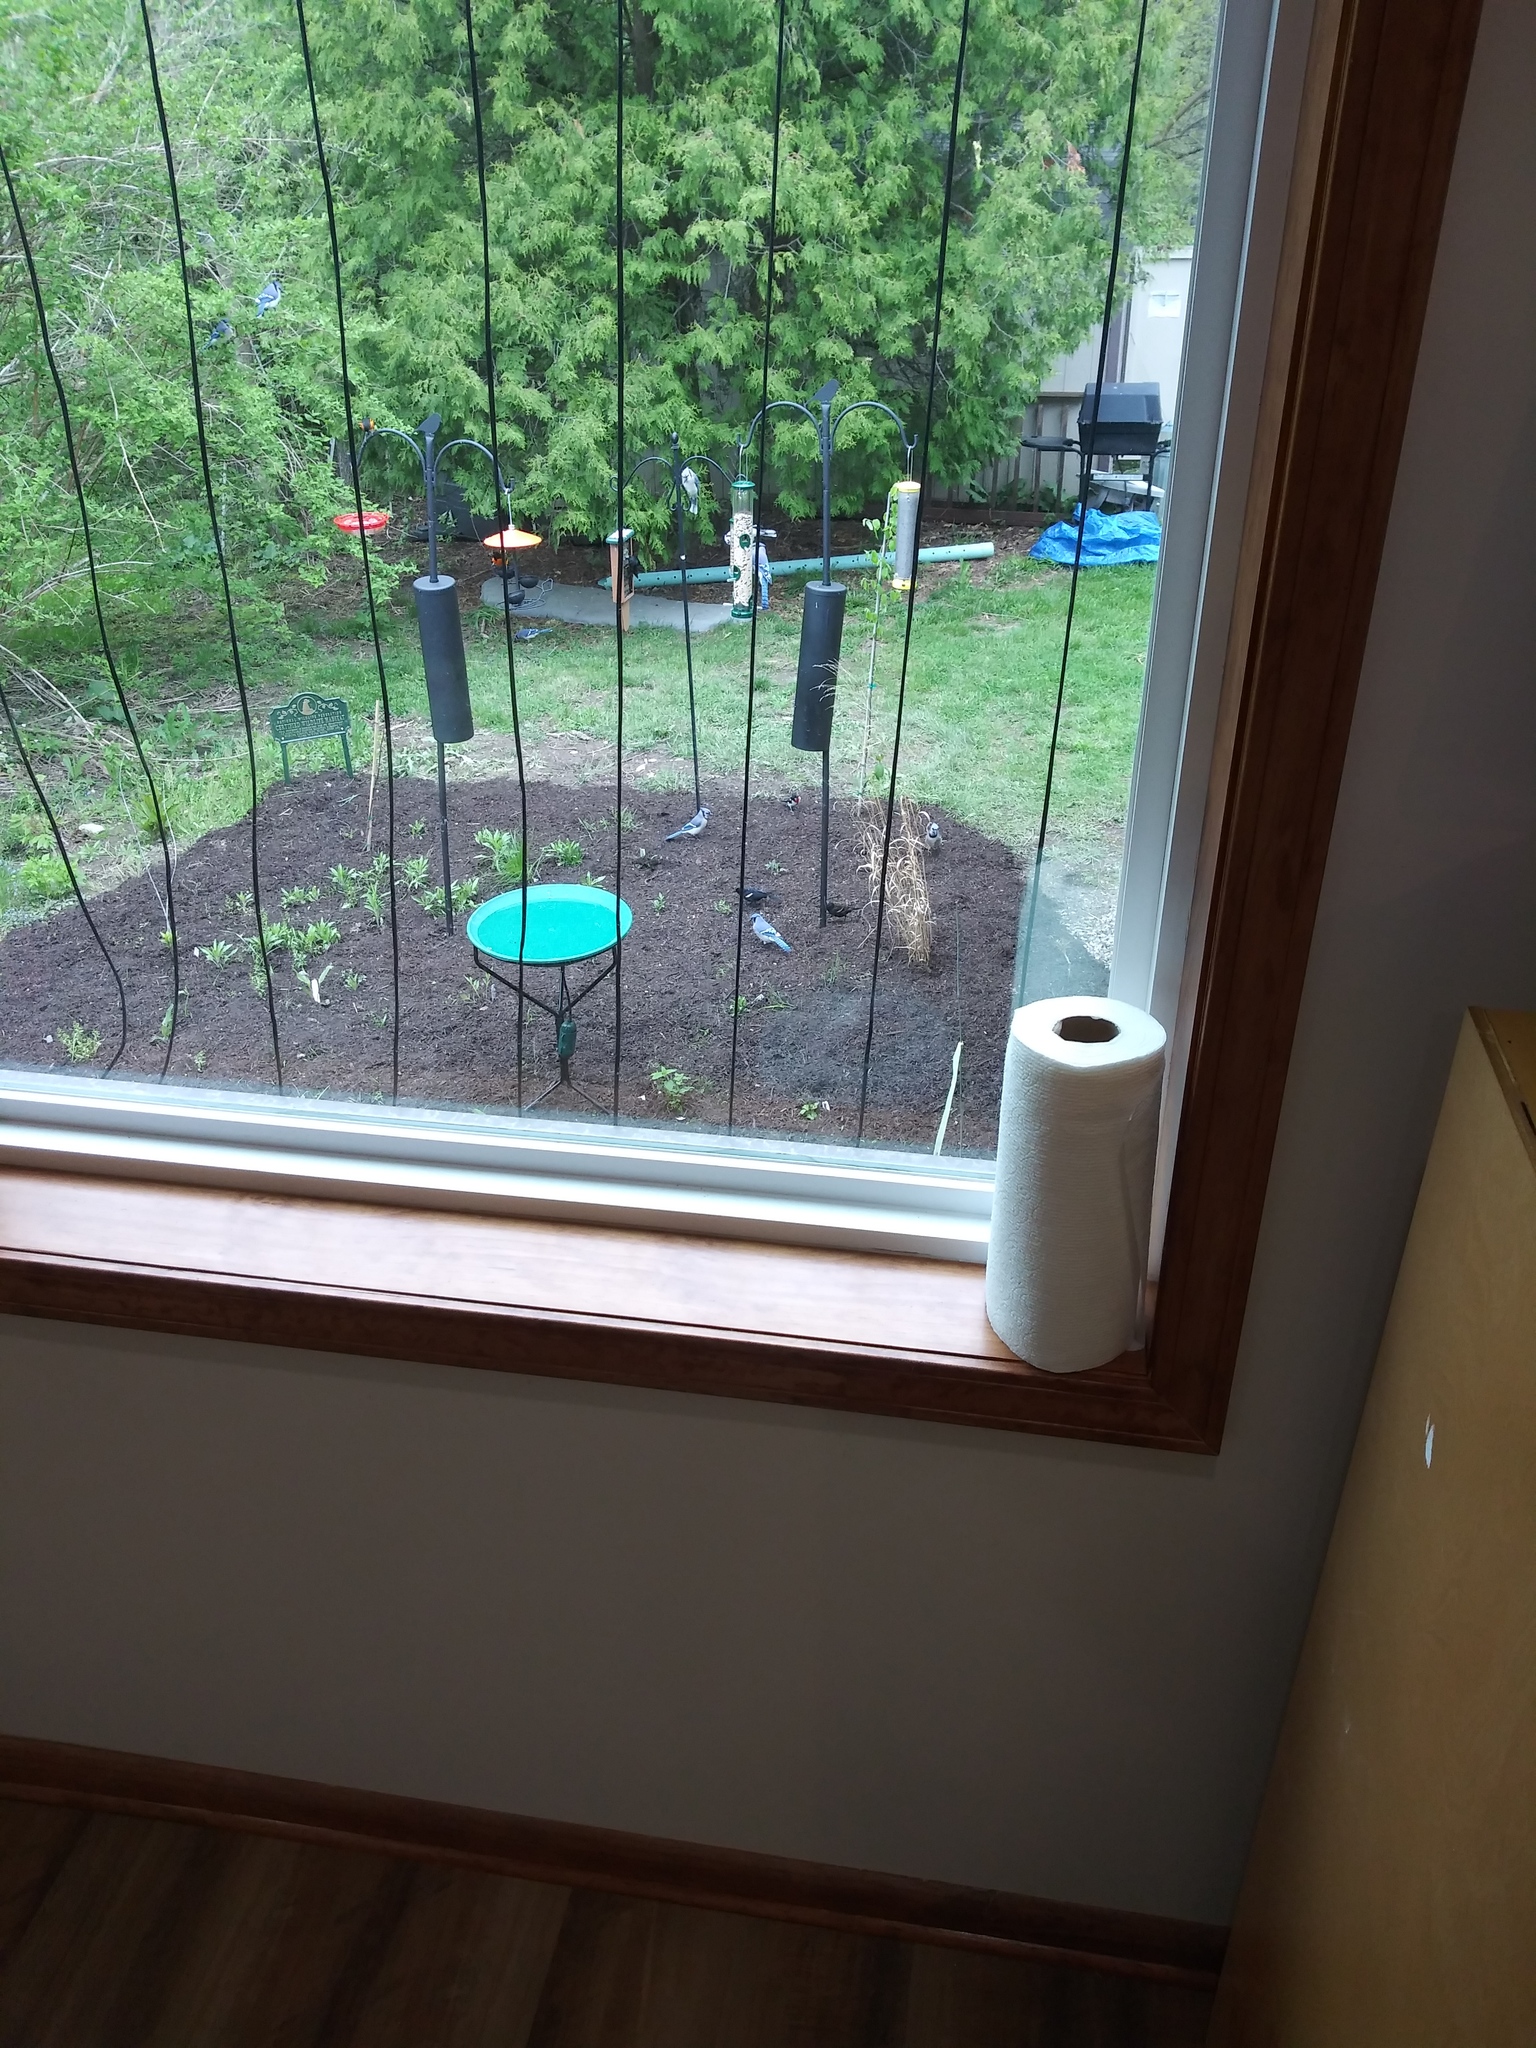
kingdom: Animalia
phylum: Chordata
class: Aves
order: Passeriformes
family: Corvidae
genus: Cyanocitta
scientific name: Cyanocitta cristata
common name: Blue jay
